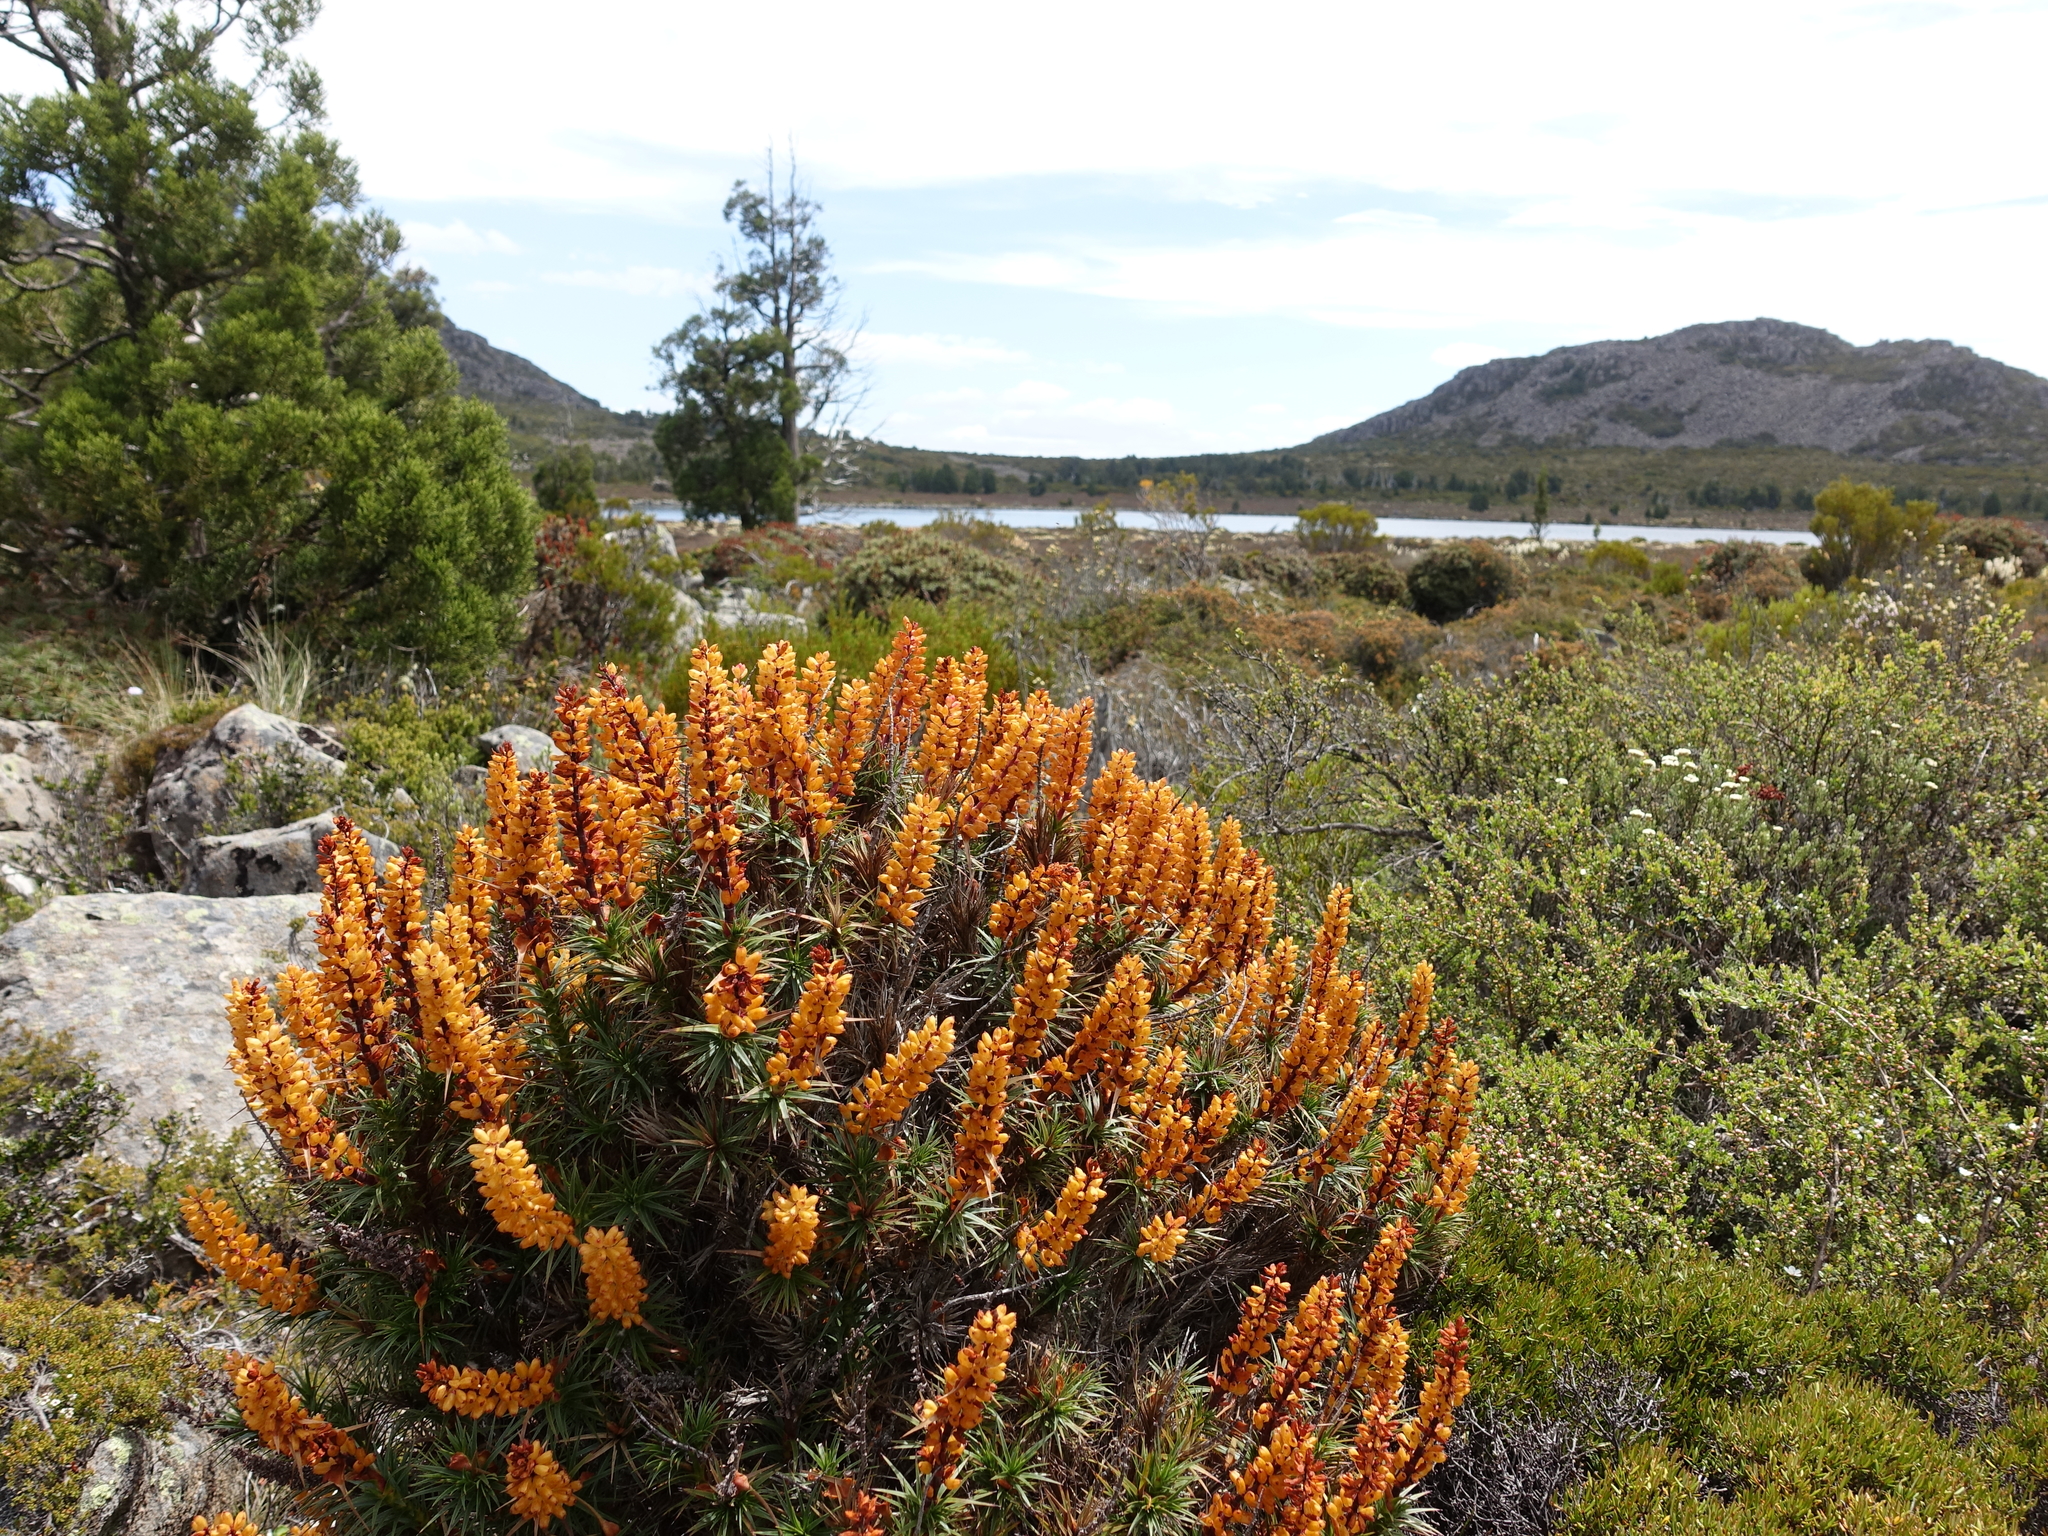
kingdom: Plantae
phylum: Tracheophyta
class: Magnoliopsida
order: Ericales
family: Ericaceae
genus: Dracophyllum
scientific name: Dracophyllum persistentifolium
